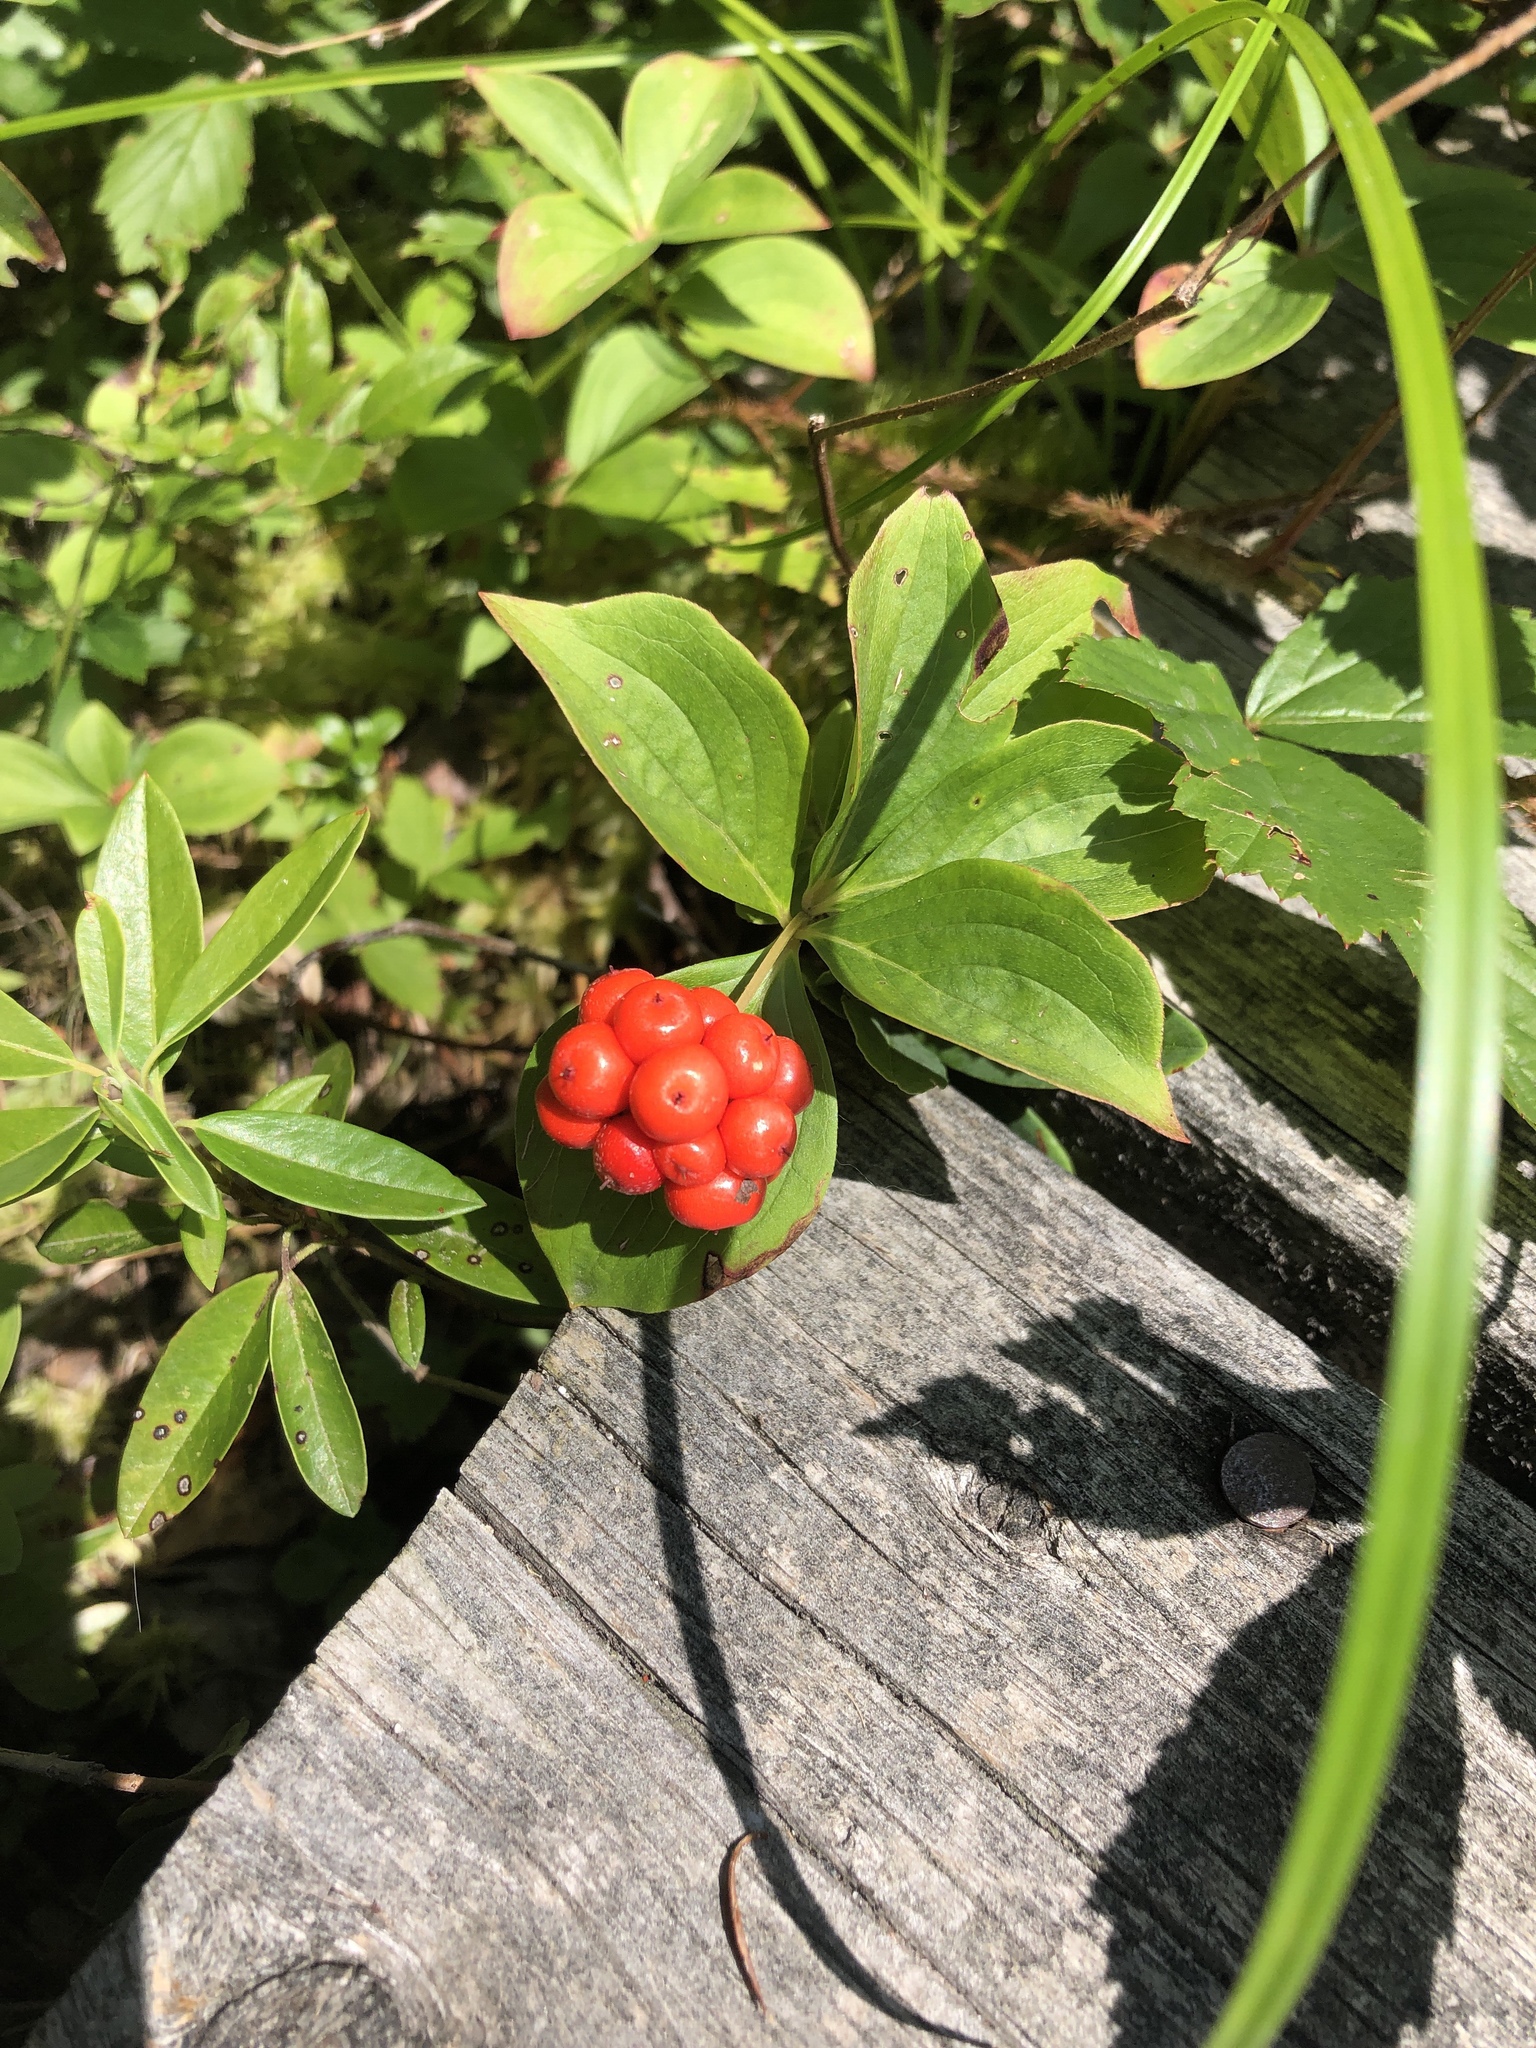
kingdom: Plantae
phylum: Tracheophyta
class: Magnoliopsida
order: Cornales
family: Cornaceae
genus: Cornus
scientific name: Cornus canadensis
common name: Creeping dogwood
